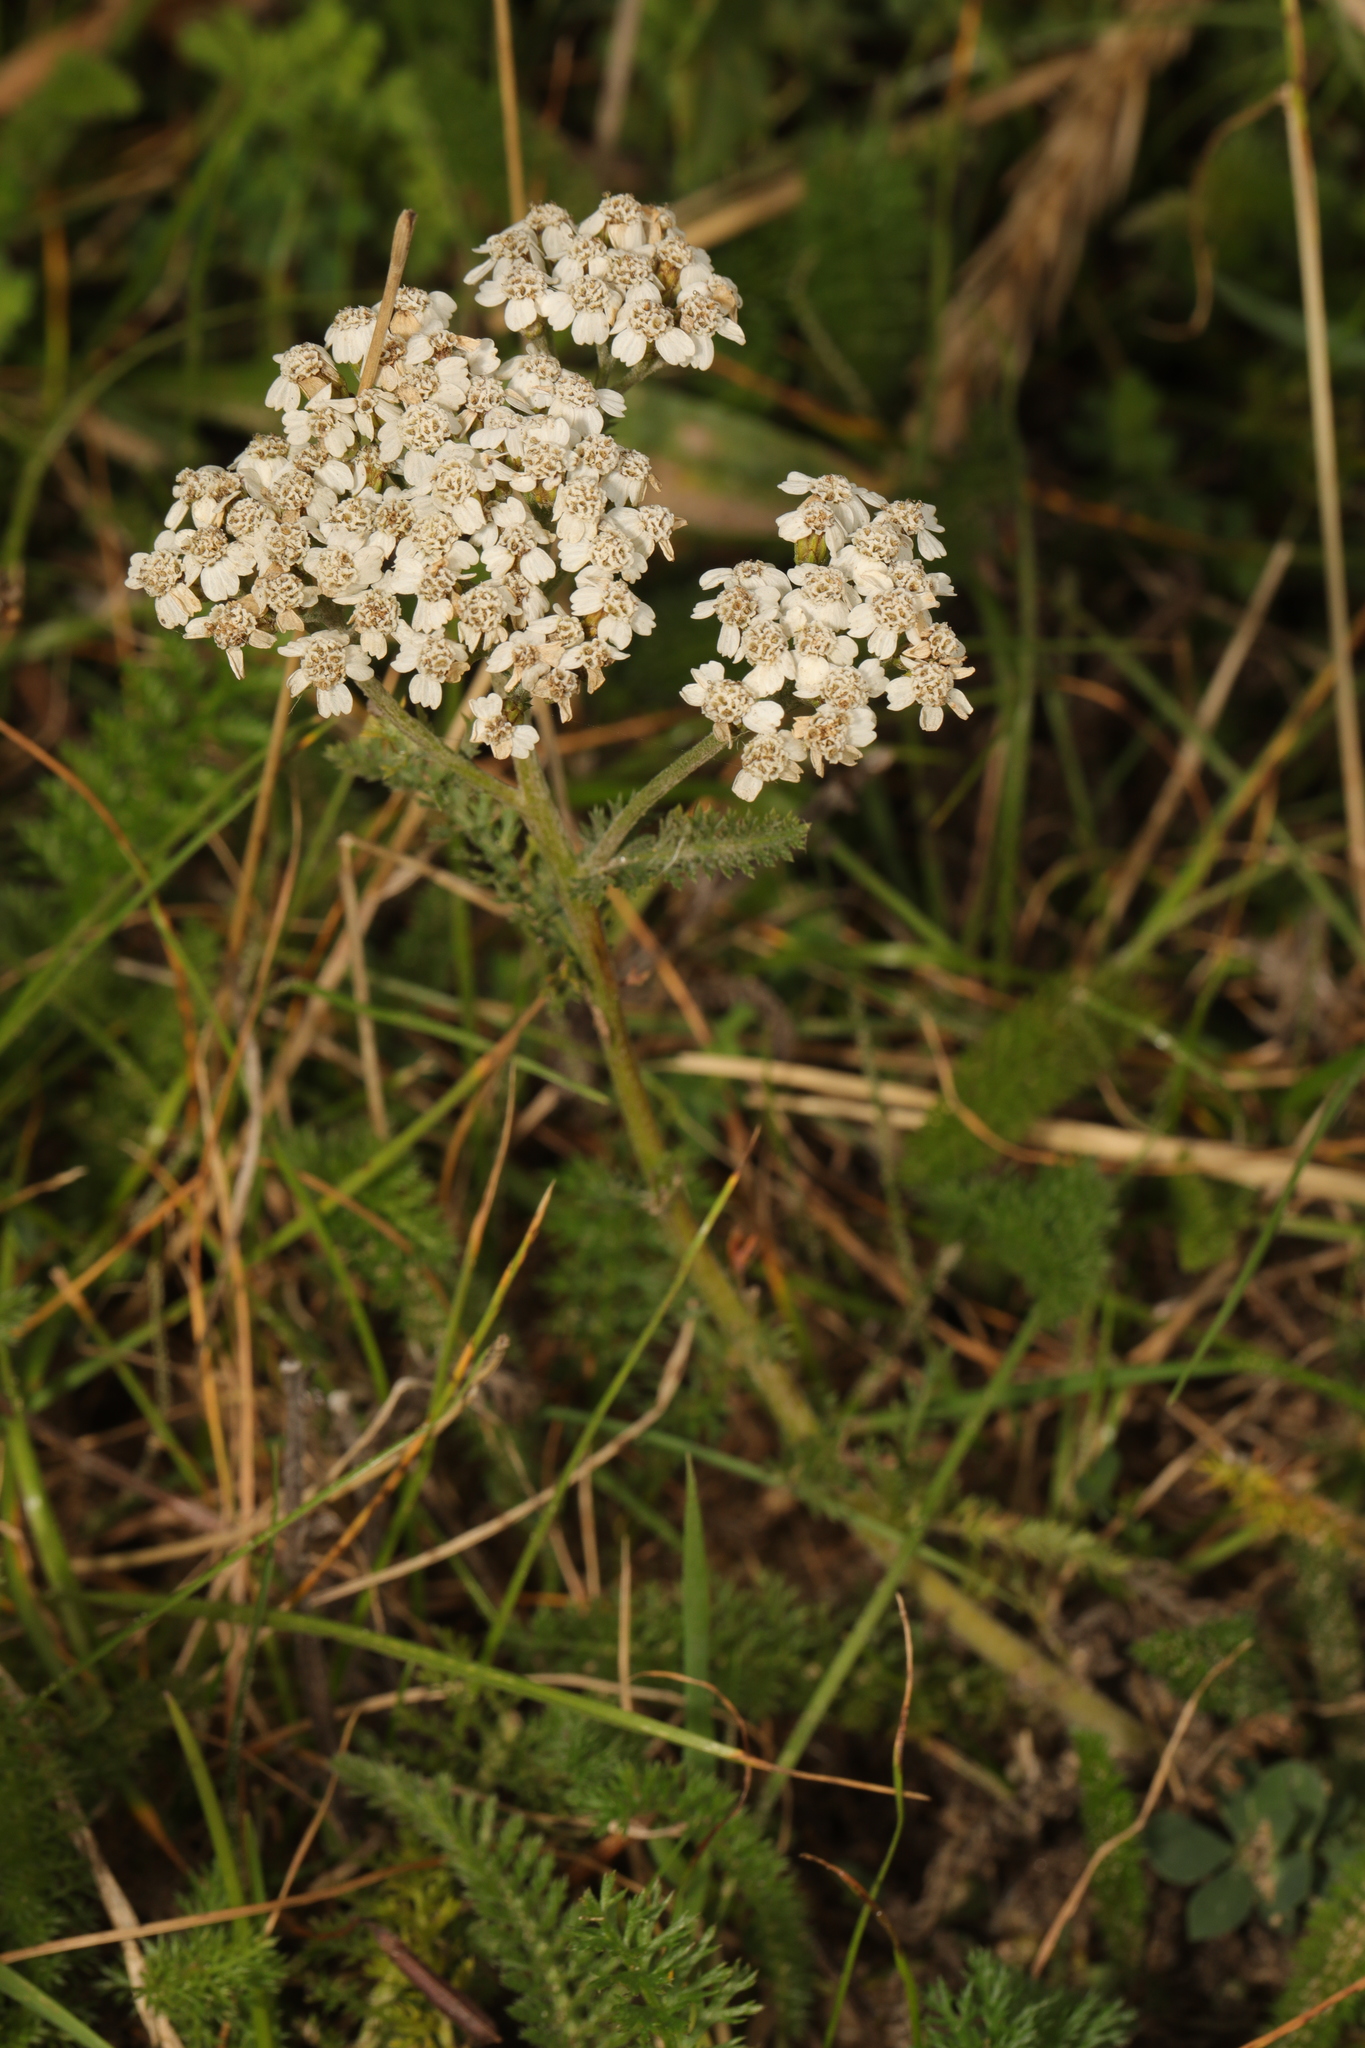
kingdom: Plantae
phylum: Tracheophyta
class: Magnoliopsida
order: Asterales
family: Asteraceae
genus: Achillea
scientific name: Achillea millefolium
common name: Yarrow
